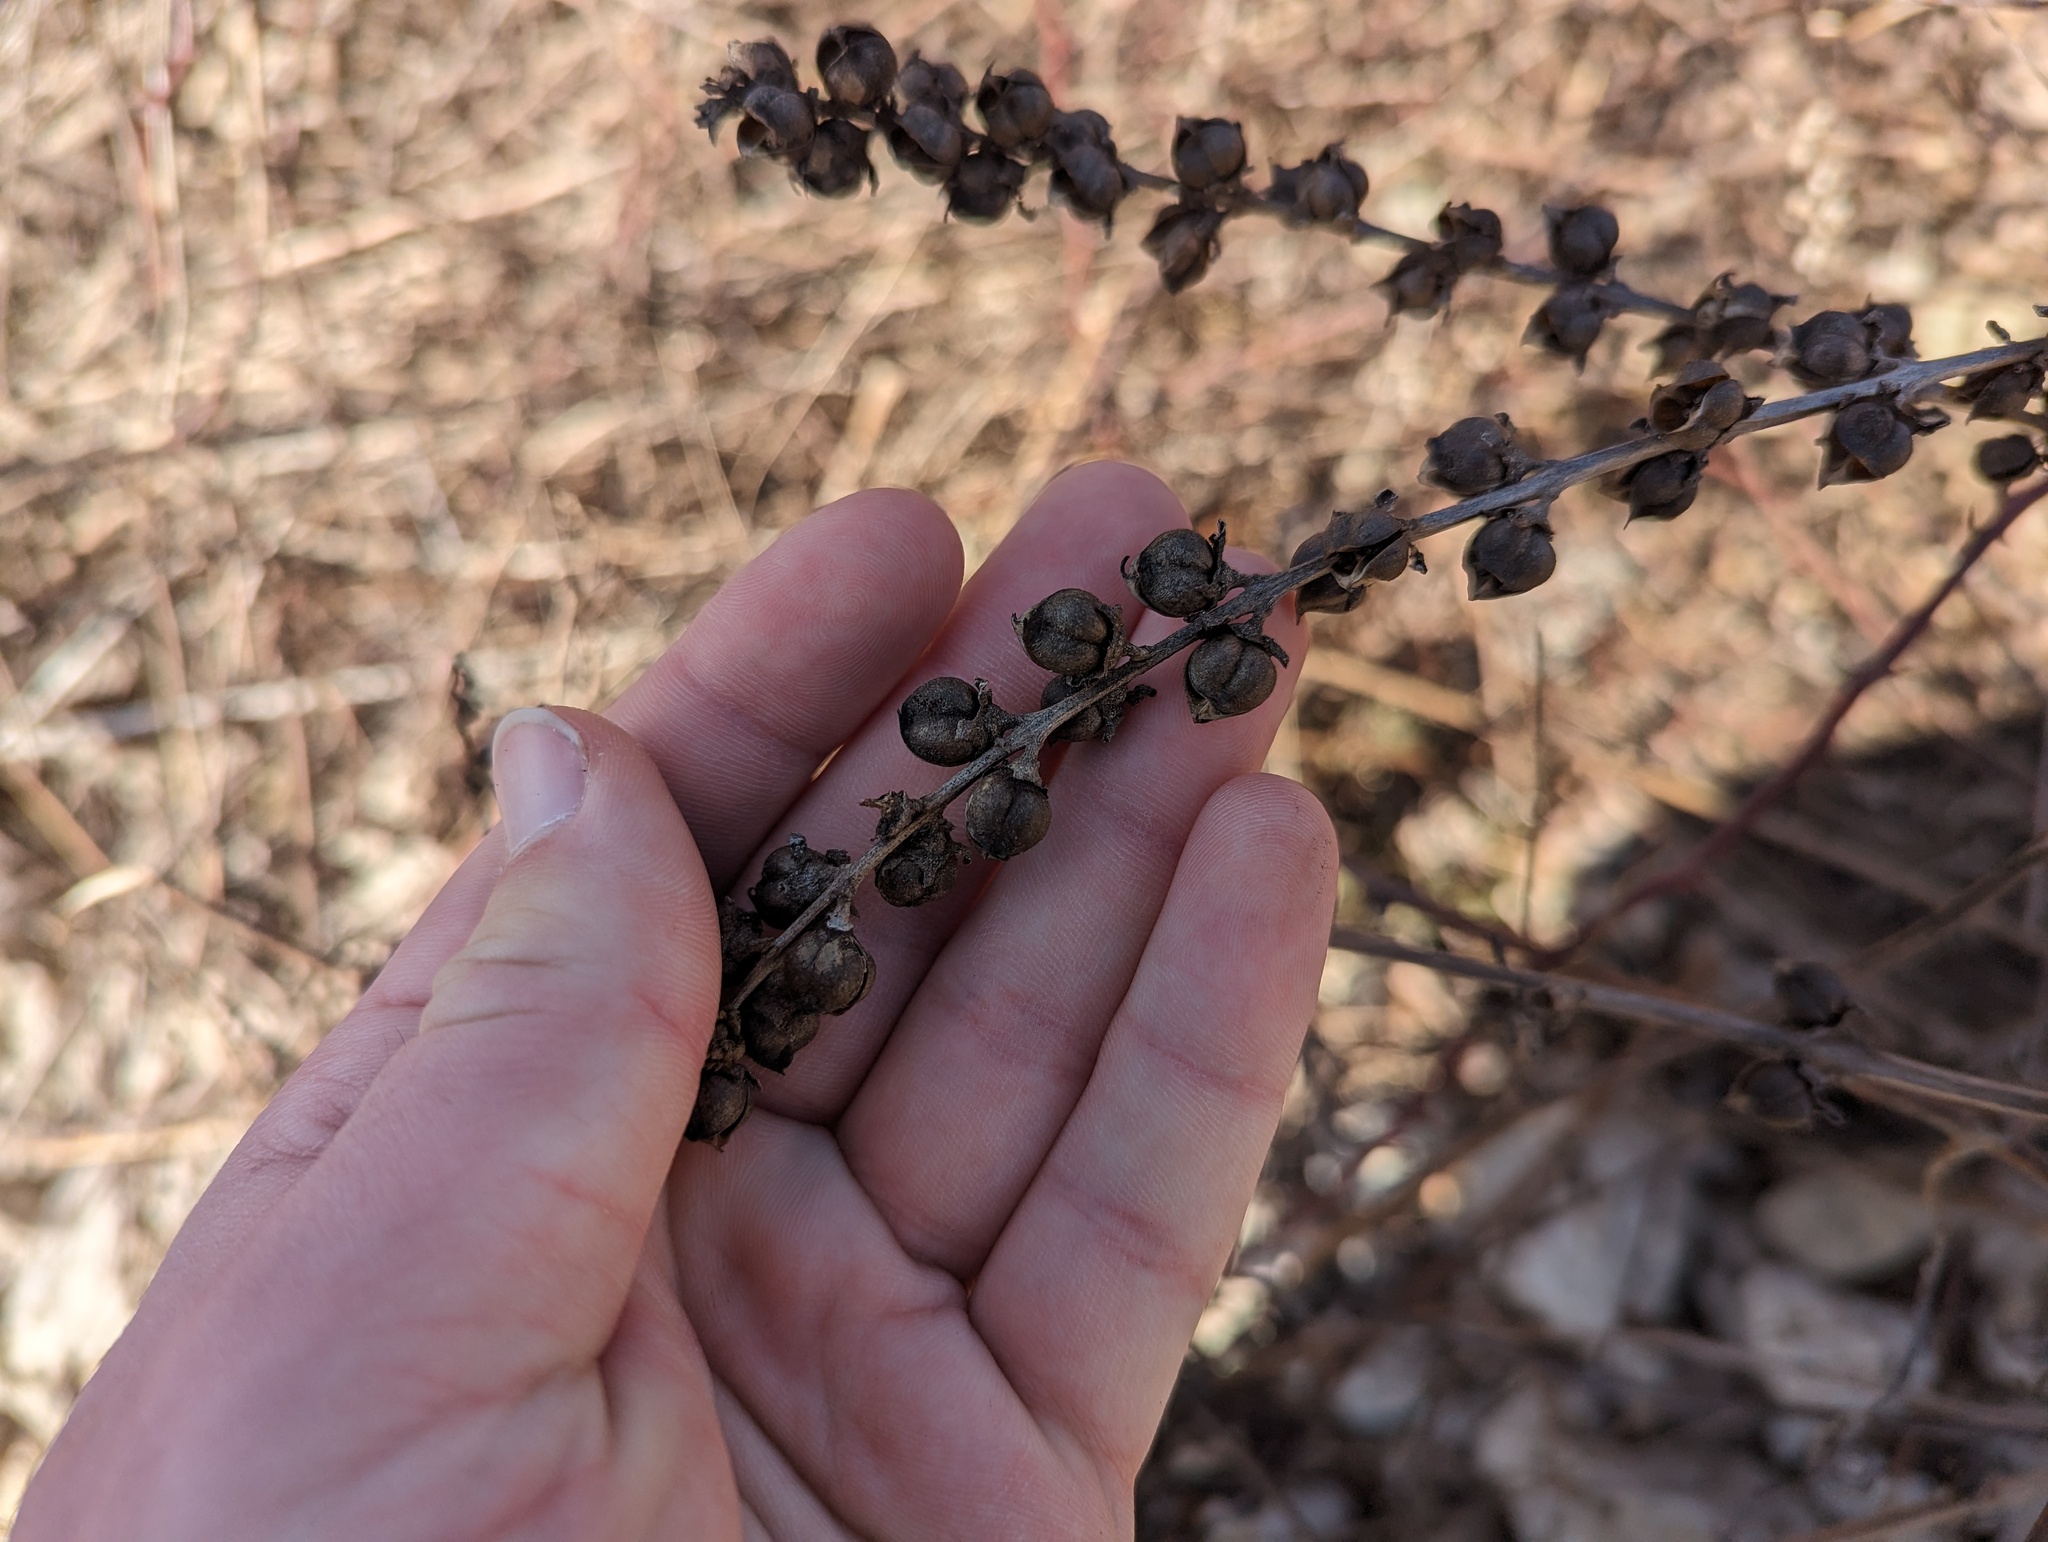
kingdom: Plantae
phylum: Tracheophyta
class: Magnoliopsida
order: Lamiales
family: Orobanchaceae
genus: Dasistoma
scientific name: Dasistoma macrophyllum
